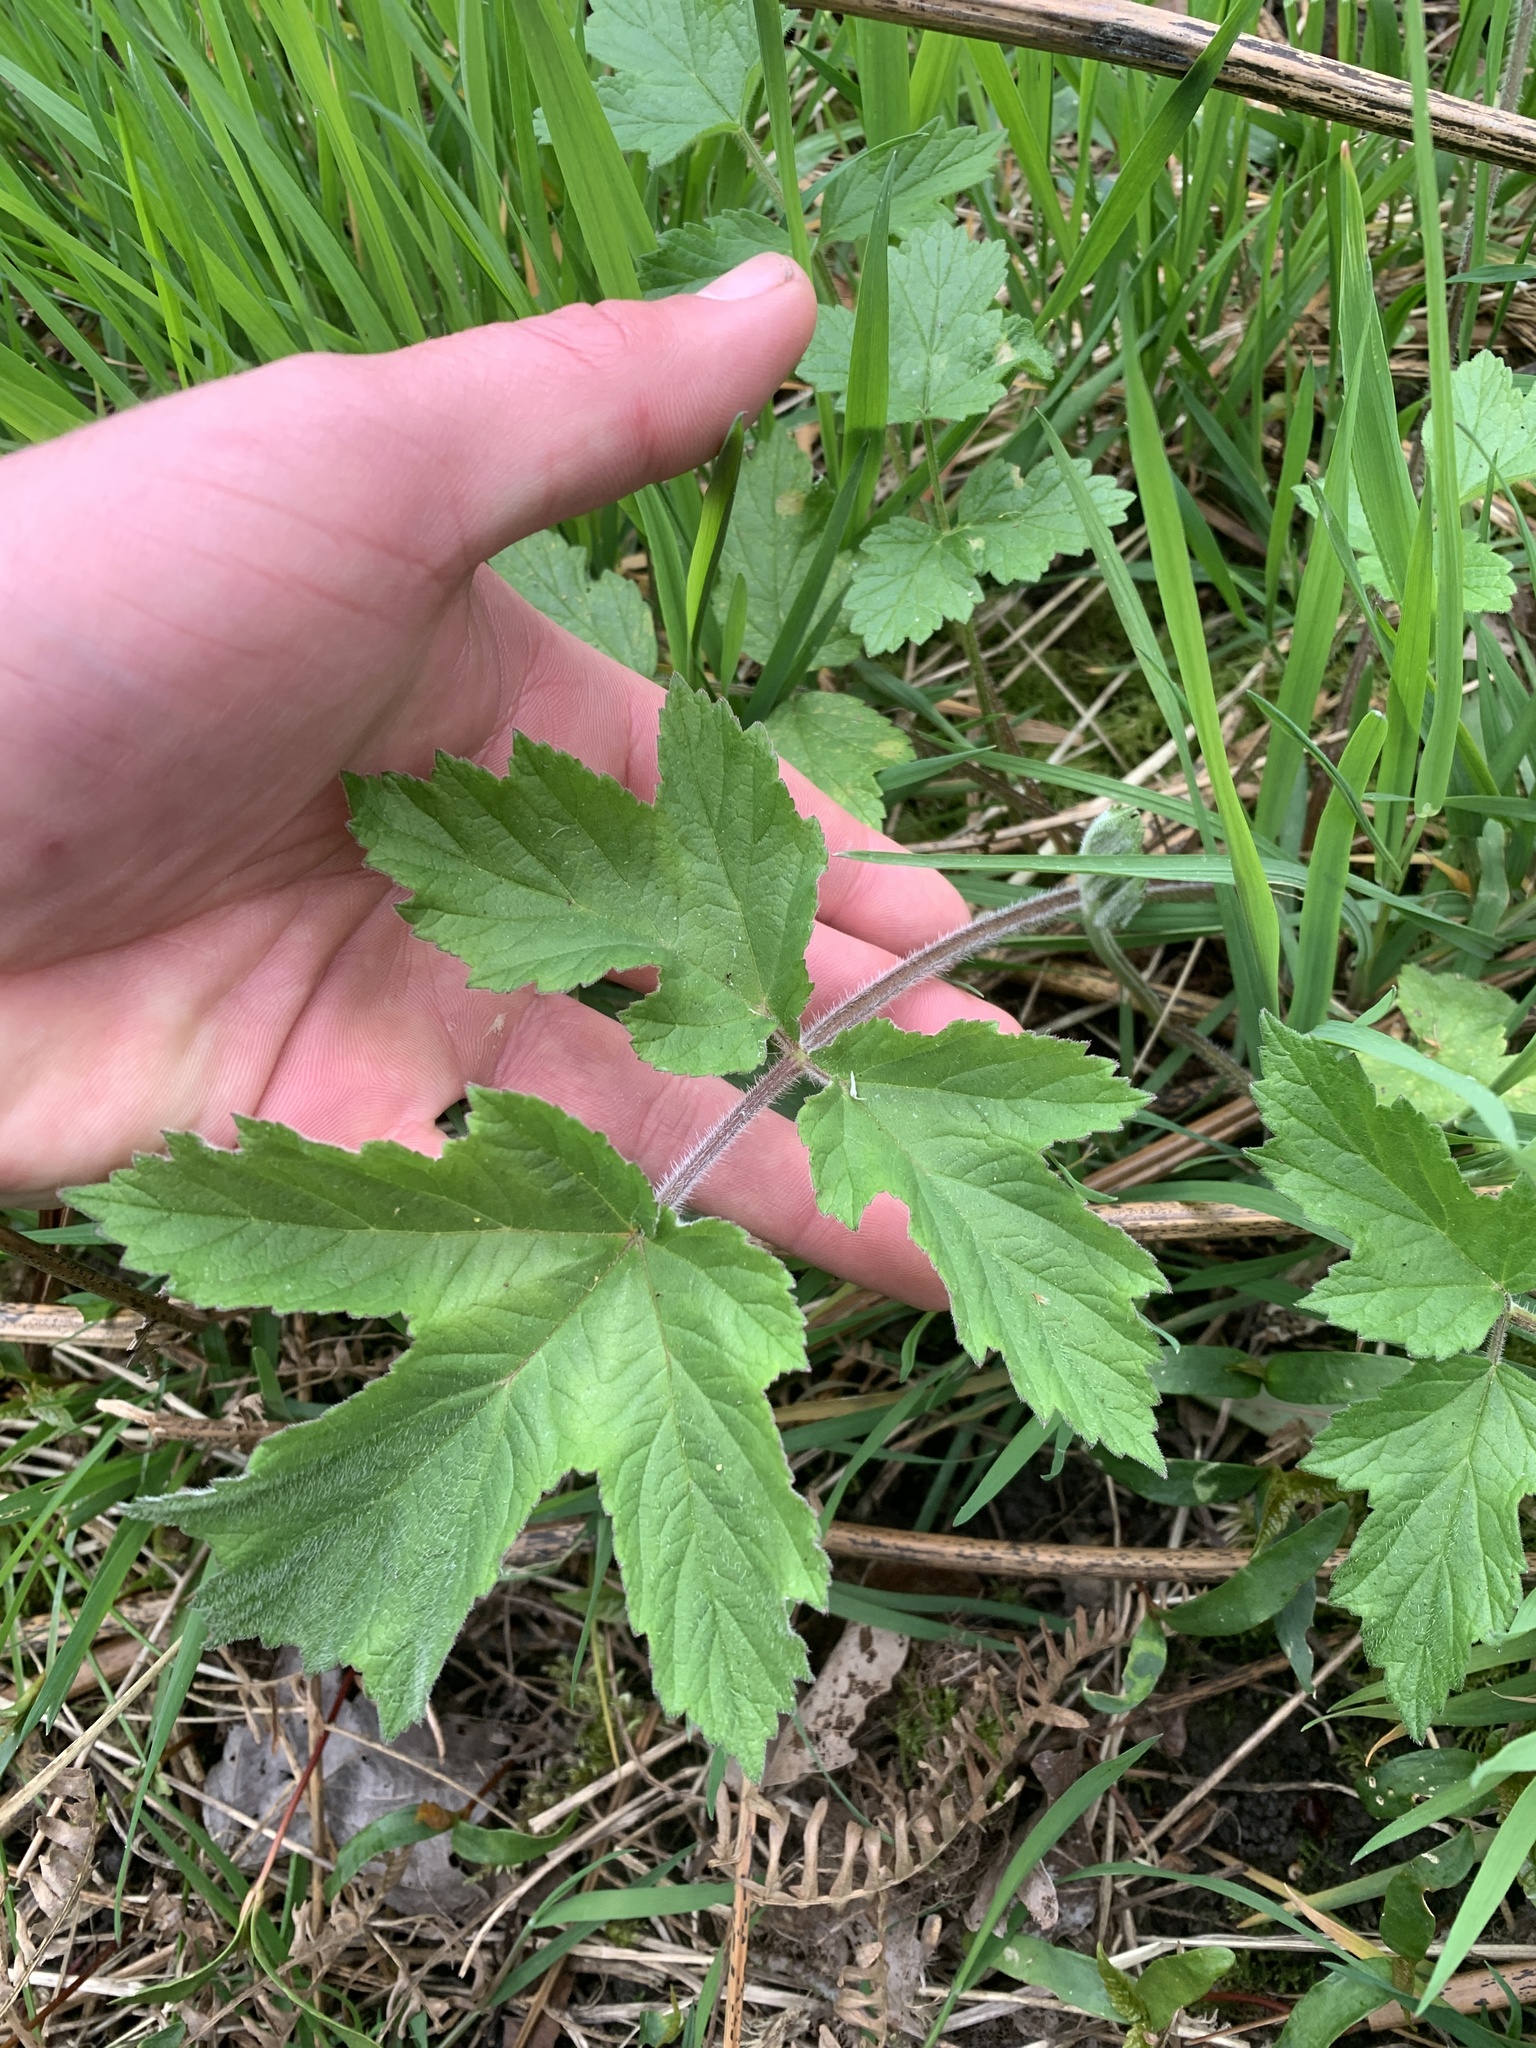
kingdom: Plantae
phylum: Tracheophyta
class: Magnoliopsida
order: Apiales
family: Apiaceae
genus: Heracleum
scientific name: Heracleum sphondylium
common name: Hogweed
